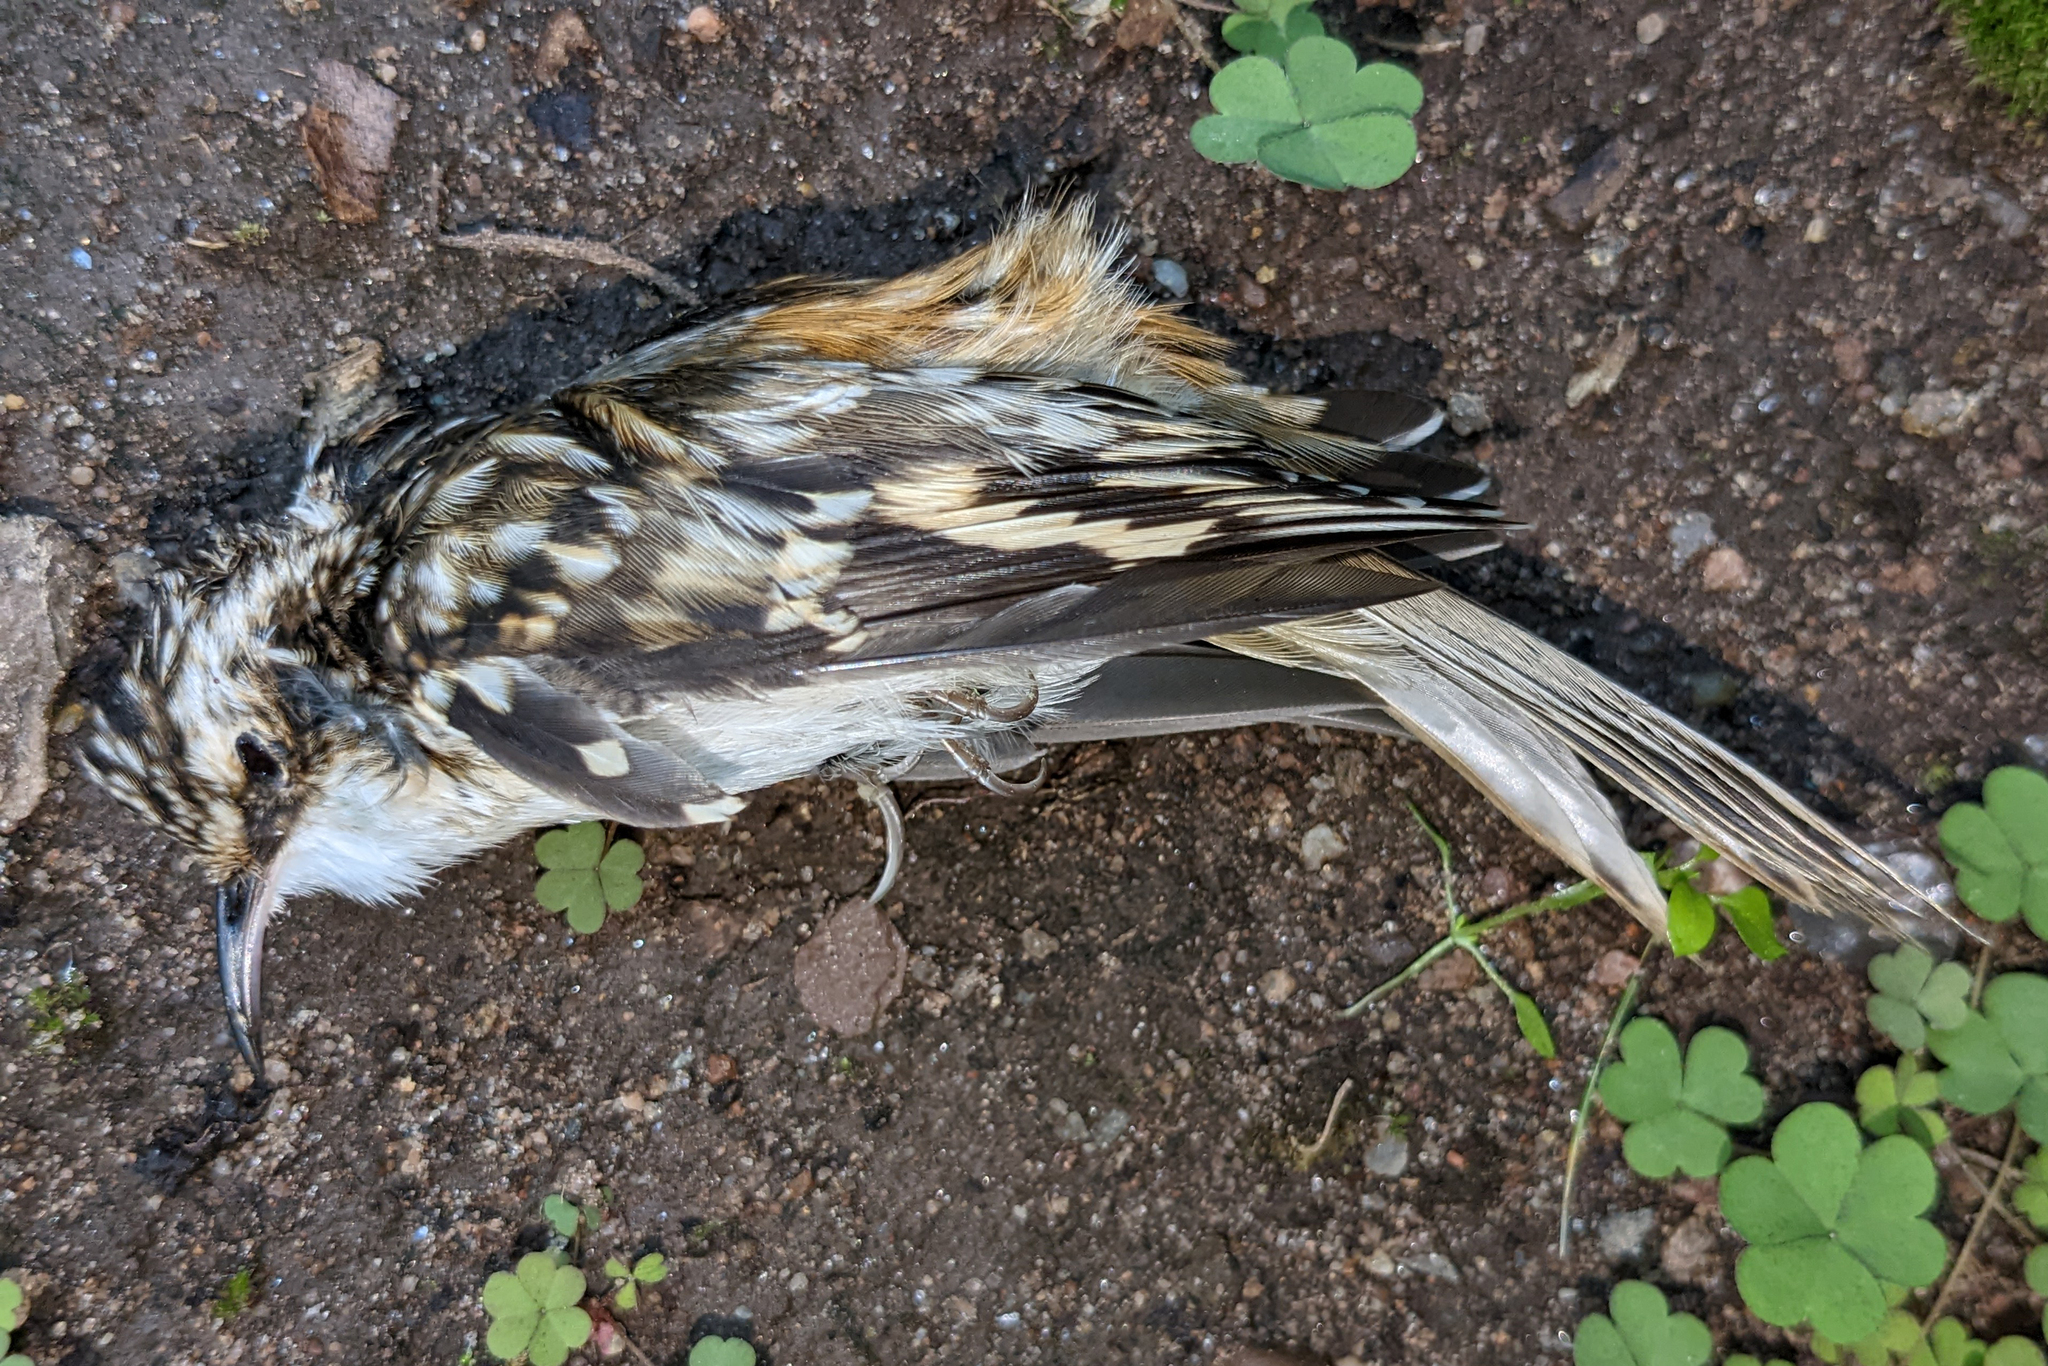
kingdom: Animalia
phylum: Chordata
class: Aves
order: Passeriformes
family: Certhiidae
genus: Certhia
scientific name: Certhia americana
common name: Brown creeper
